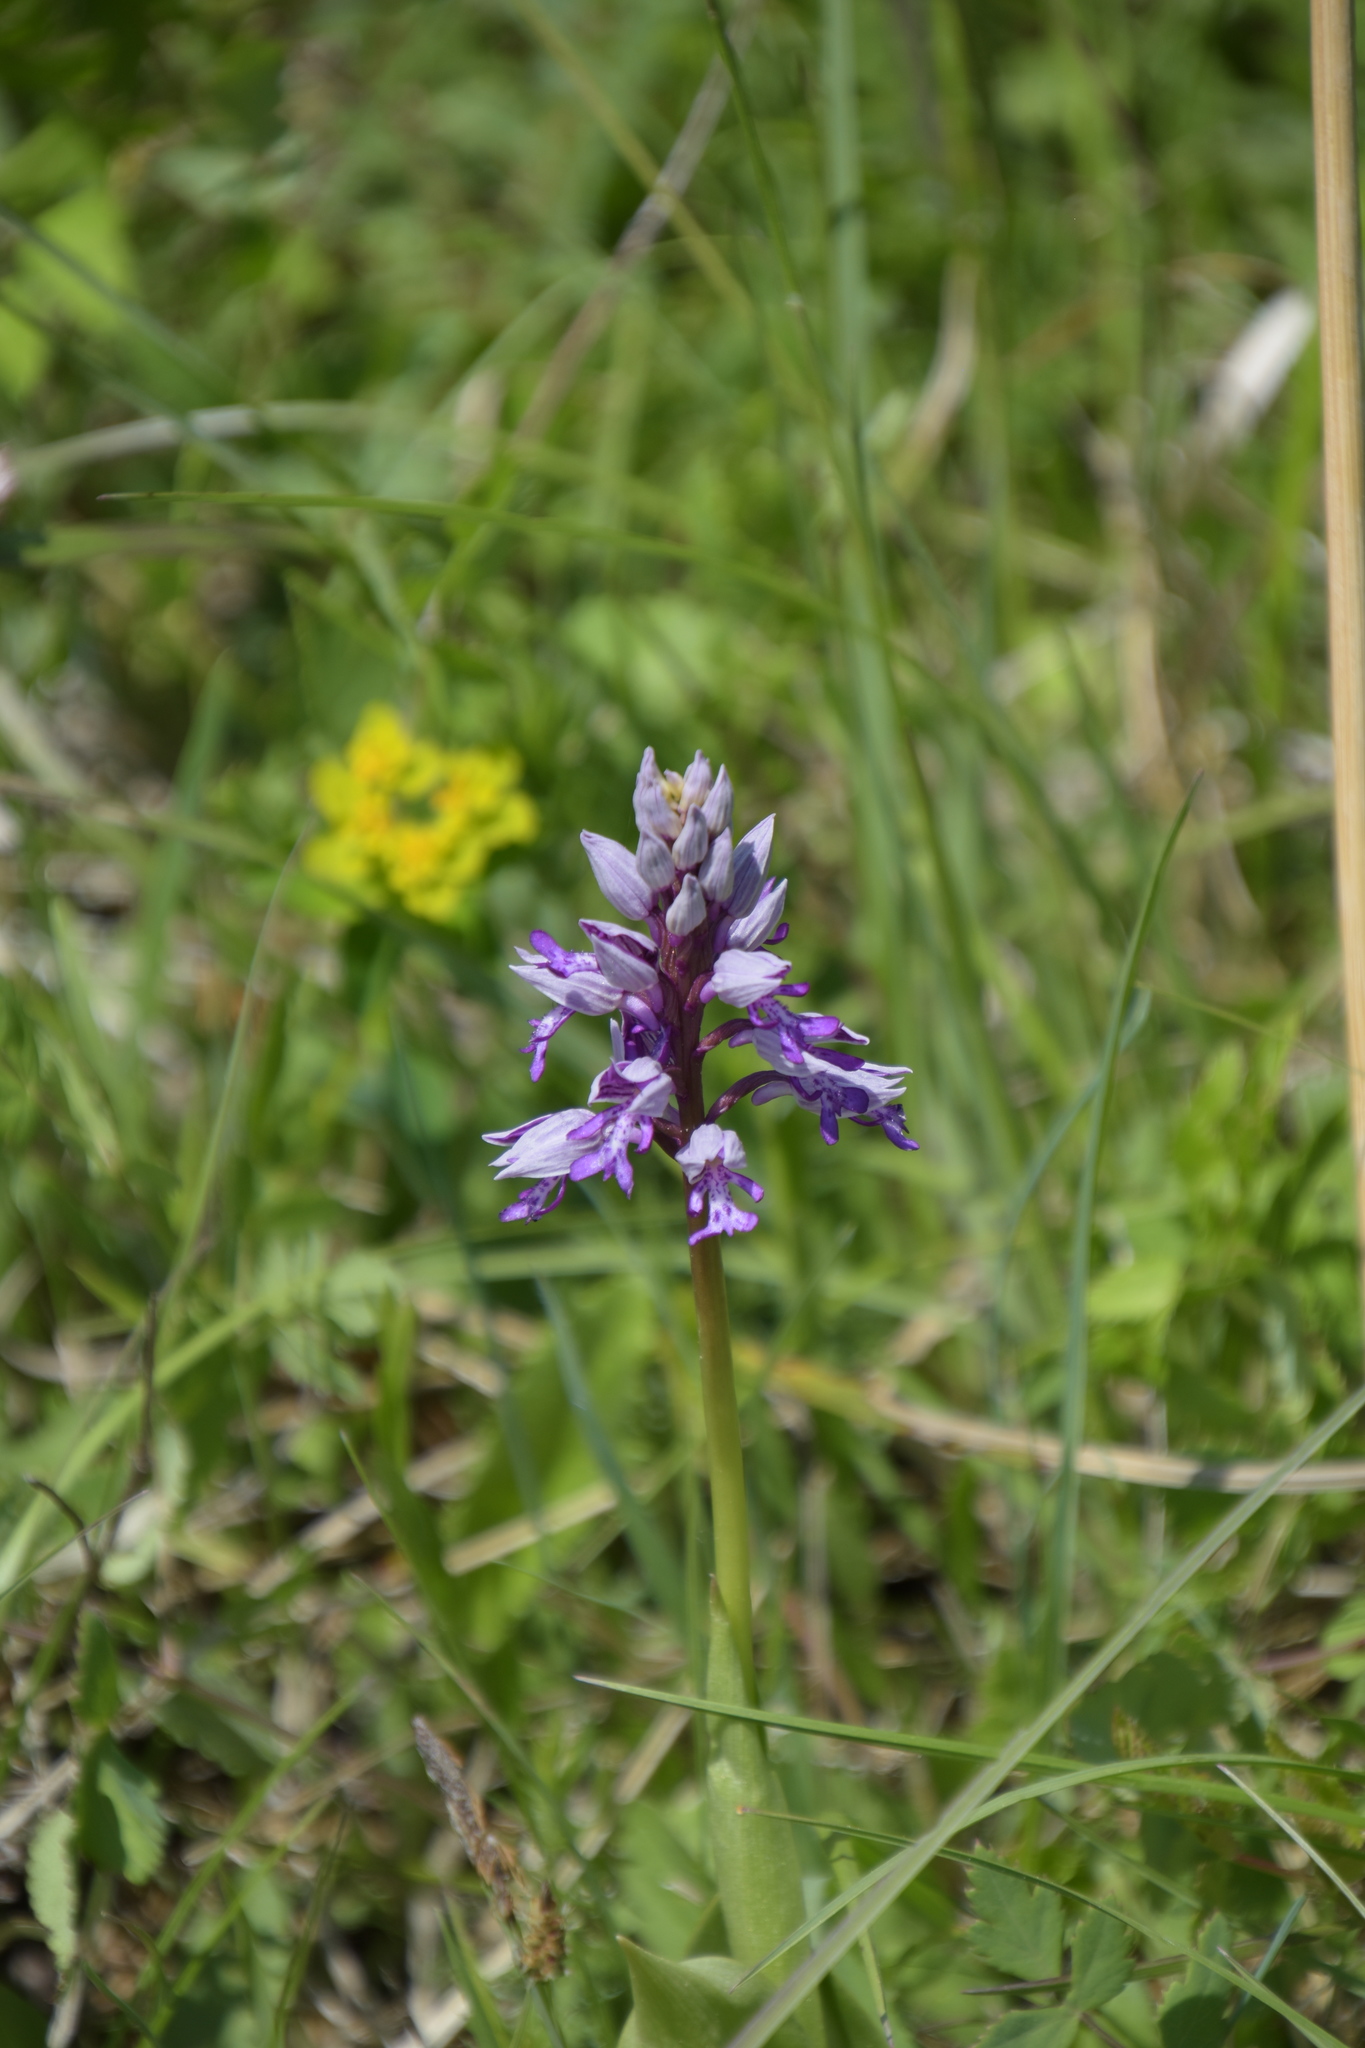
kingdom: Plantae
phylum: Tracheophyta
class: Liliopsida
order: Asparagales
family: Orchidaceae
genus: Orchis
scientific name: Orchis militaris
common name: Military orchid
